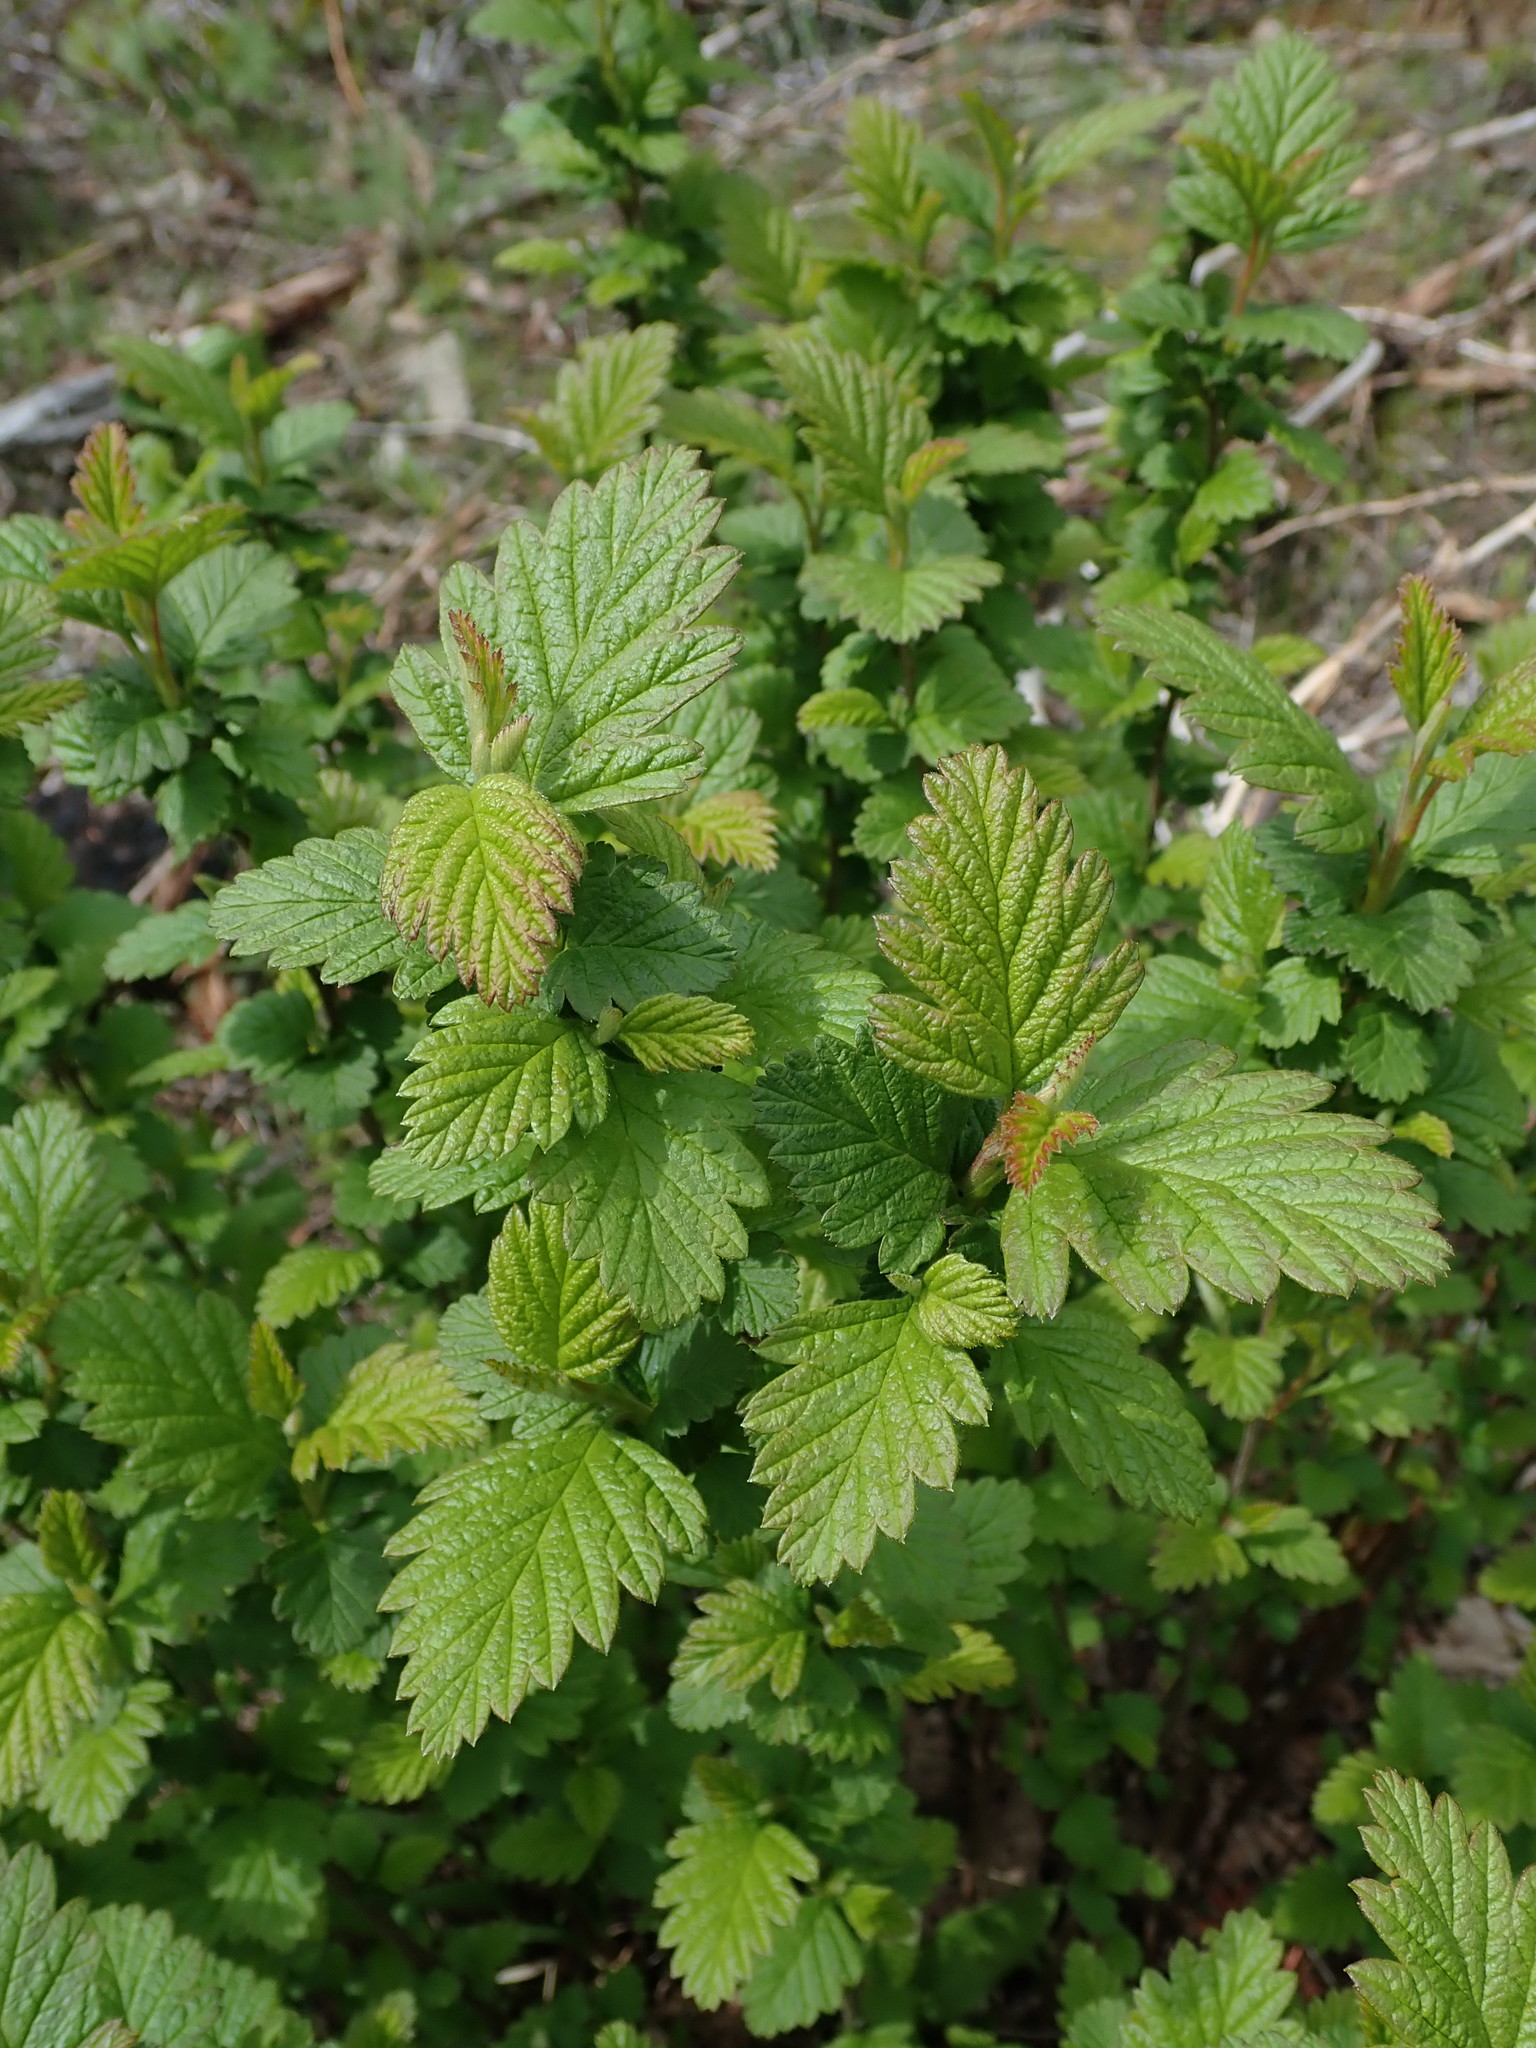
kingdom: Plantae
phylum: Tracheophyta
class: Magnoliopsida
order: Rosales
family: Rosaceae
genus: Holodiscus
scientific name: Holodiscus discolor
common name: Oceanspray
